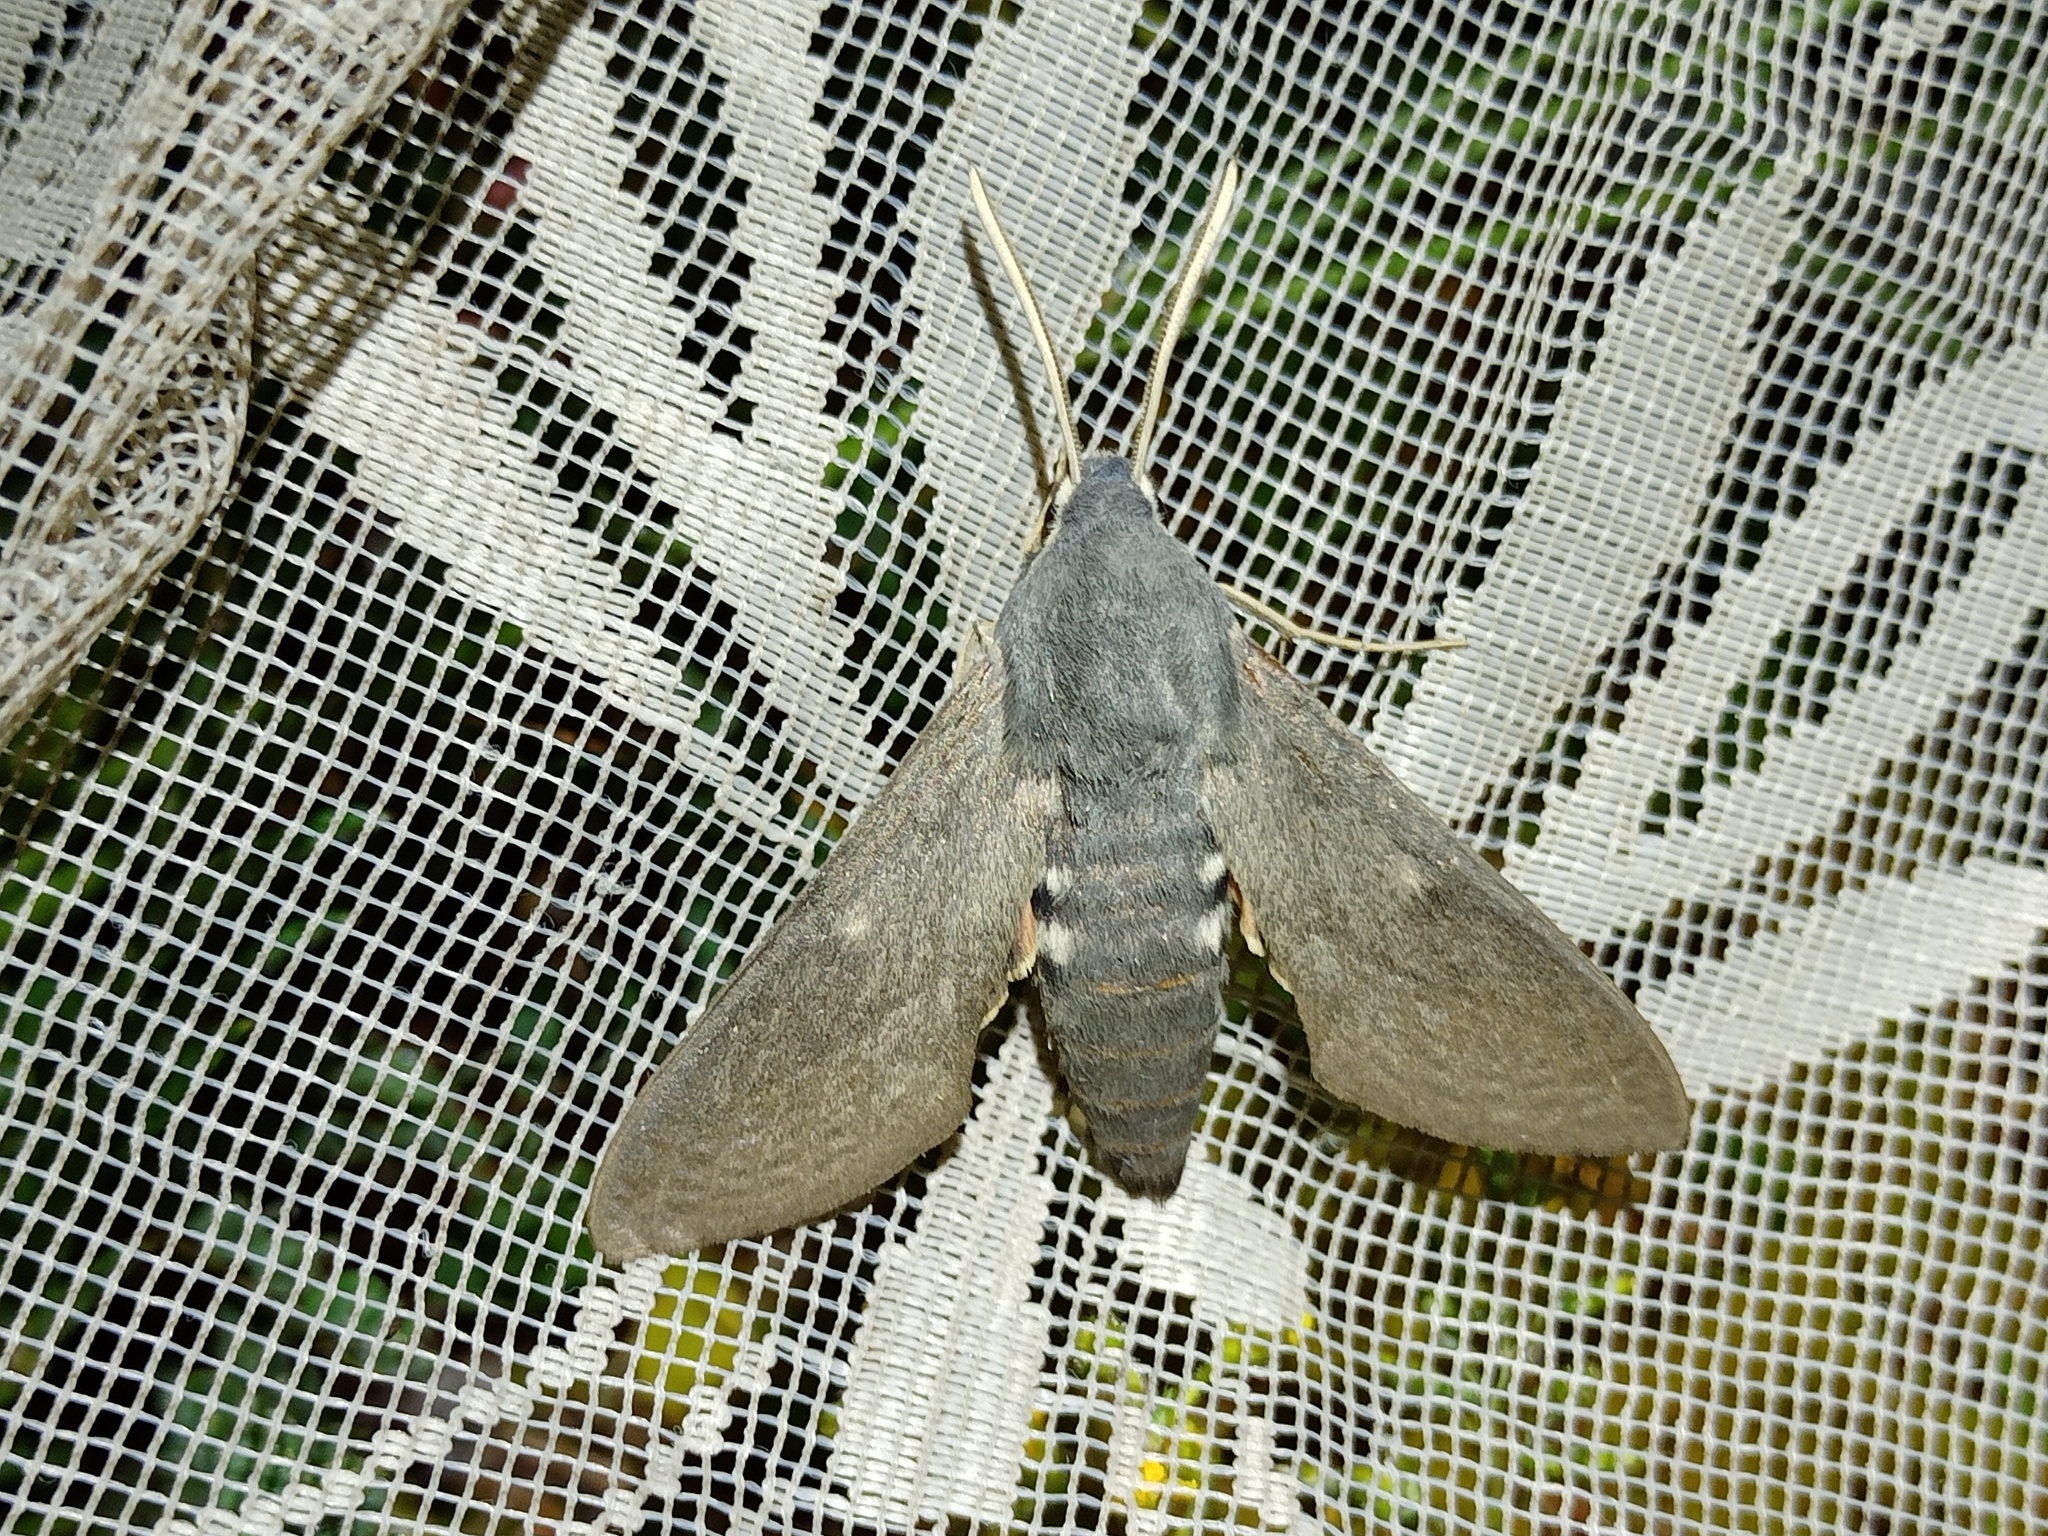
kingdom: Animalia
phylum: Arthropoda
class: Insecta
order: Lepidoptera
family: Sphingidae
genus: Hyles
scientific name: Hyles vespertilio
